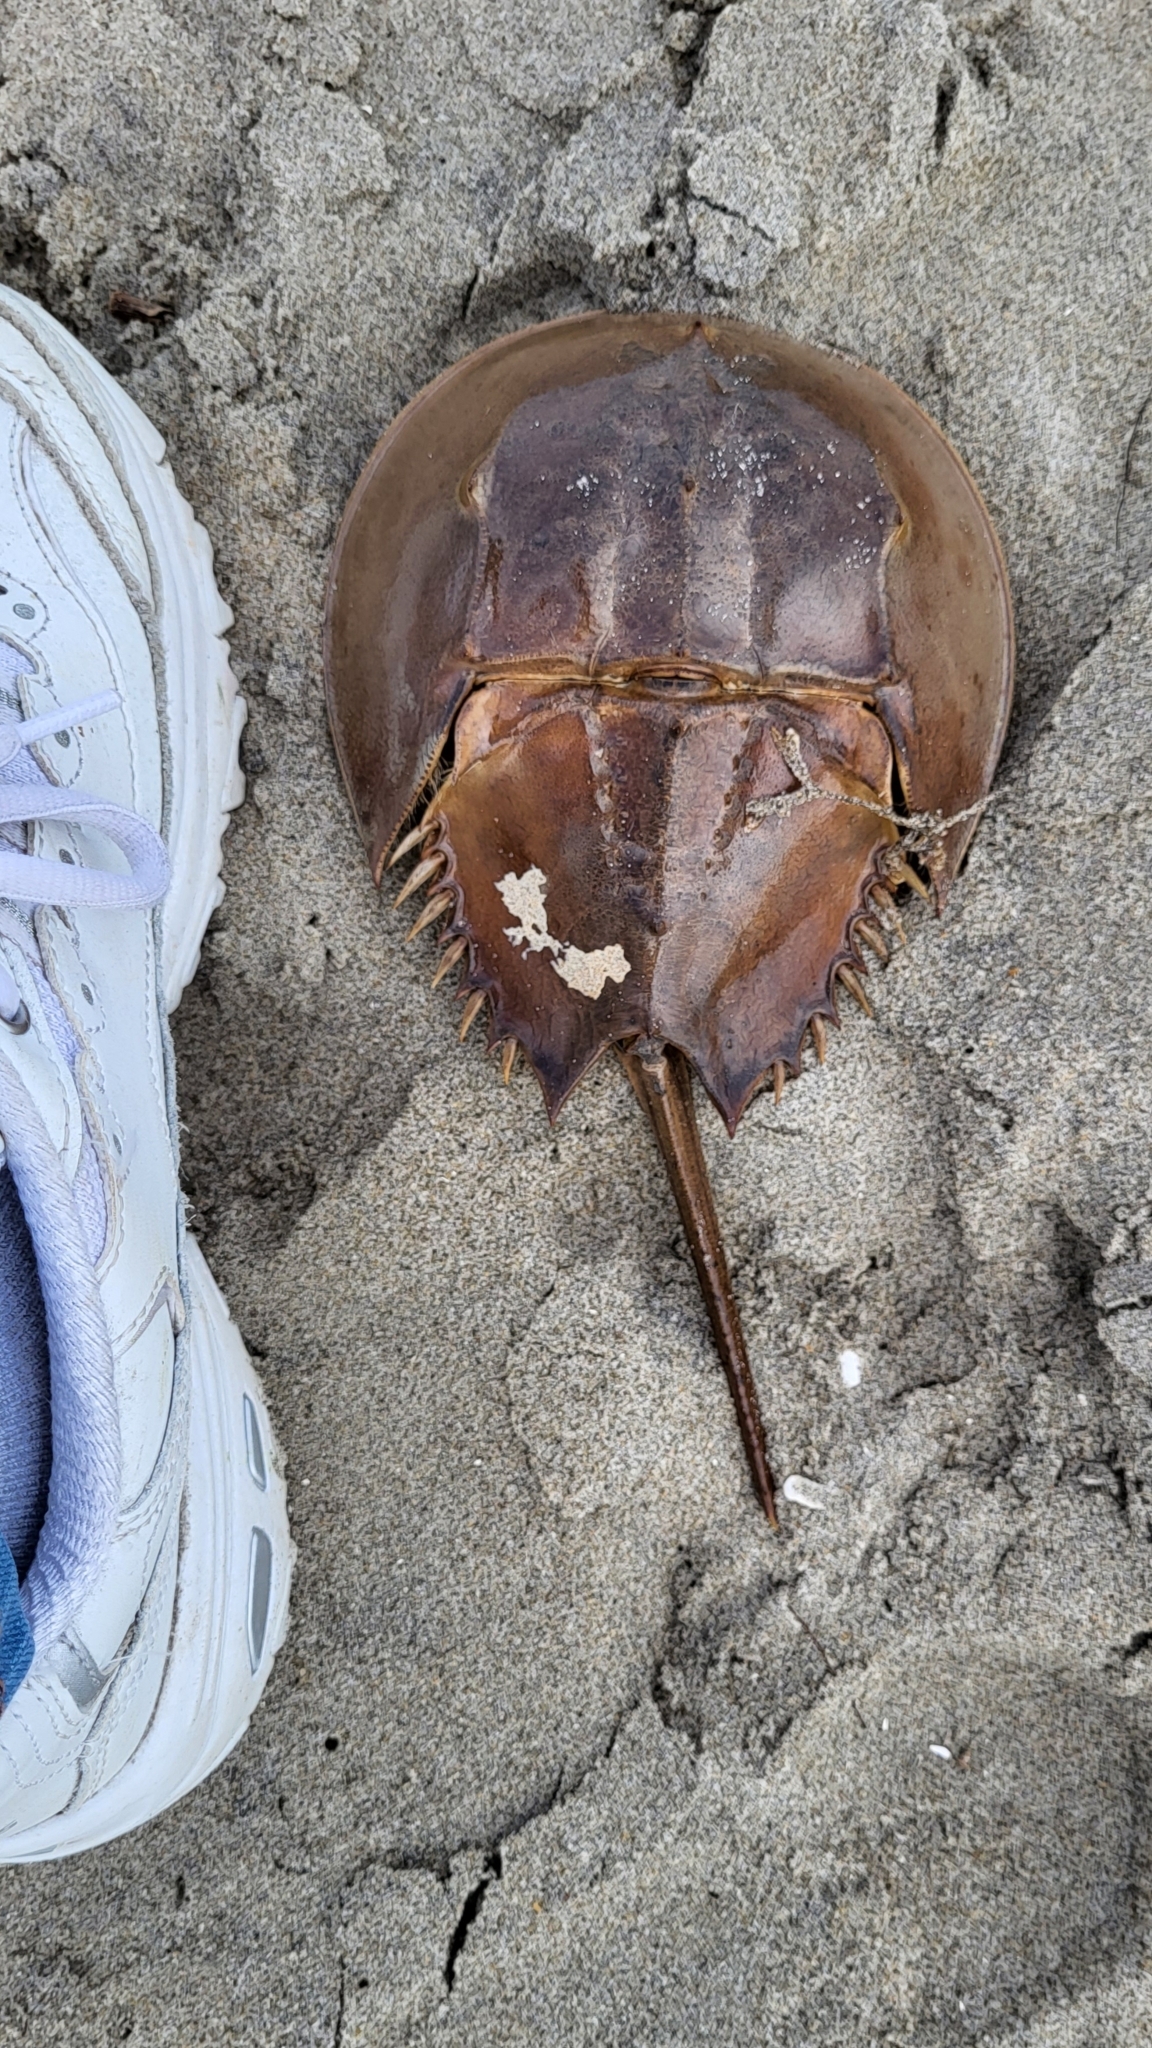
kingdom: Animalia
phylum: Arthropoda
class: Merostomata
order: Xiphosurida
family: Limulidae
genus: Limulus
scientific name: Limulus polyphemus
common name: Horseshoe crab
